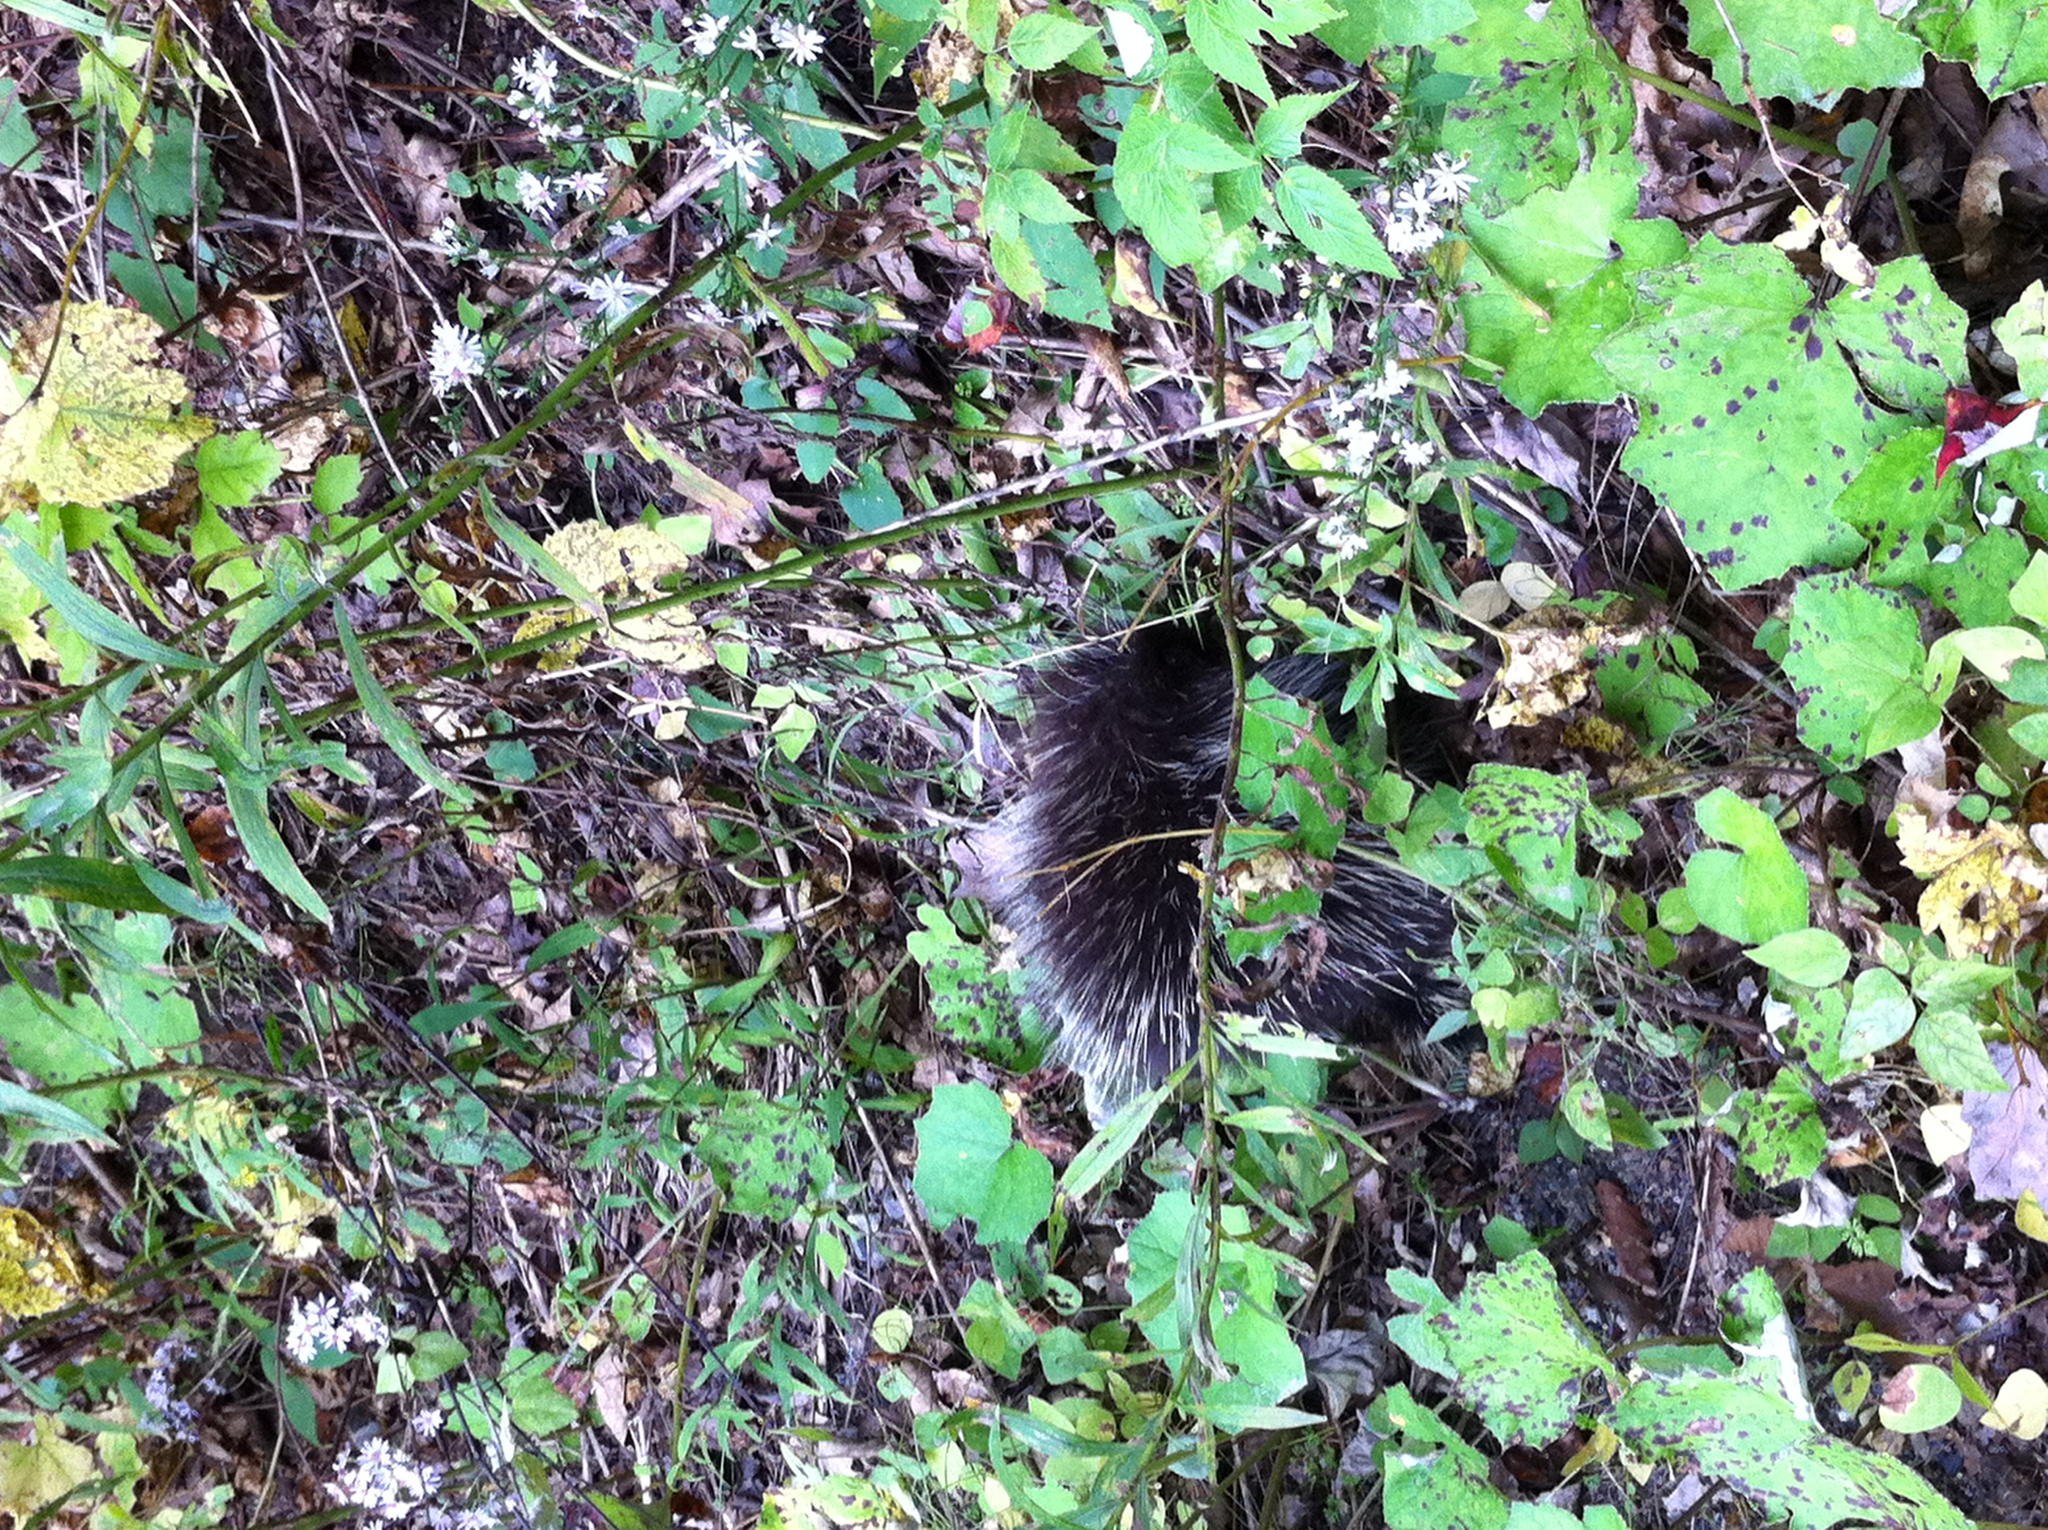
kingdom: Plantae
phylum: Tracheophyta
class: Magnoliopsida
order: Asterales
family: Asteraceae
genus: Tussilago
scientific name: Tussilago farfara
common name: Coltsfoot
